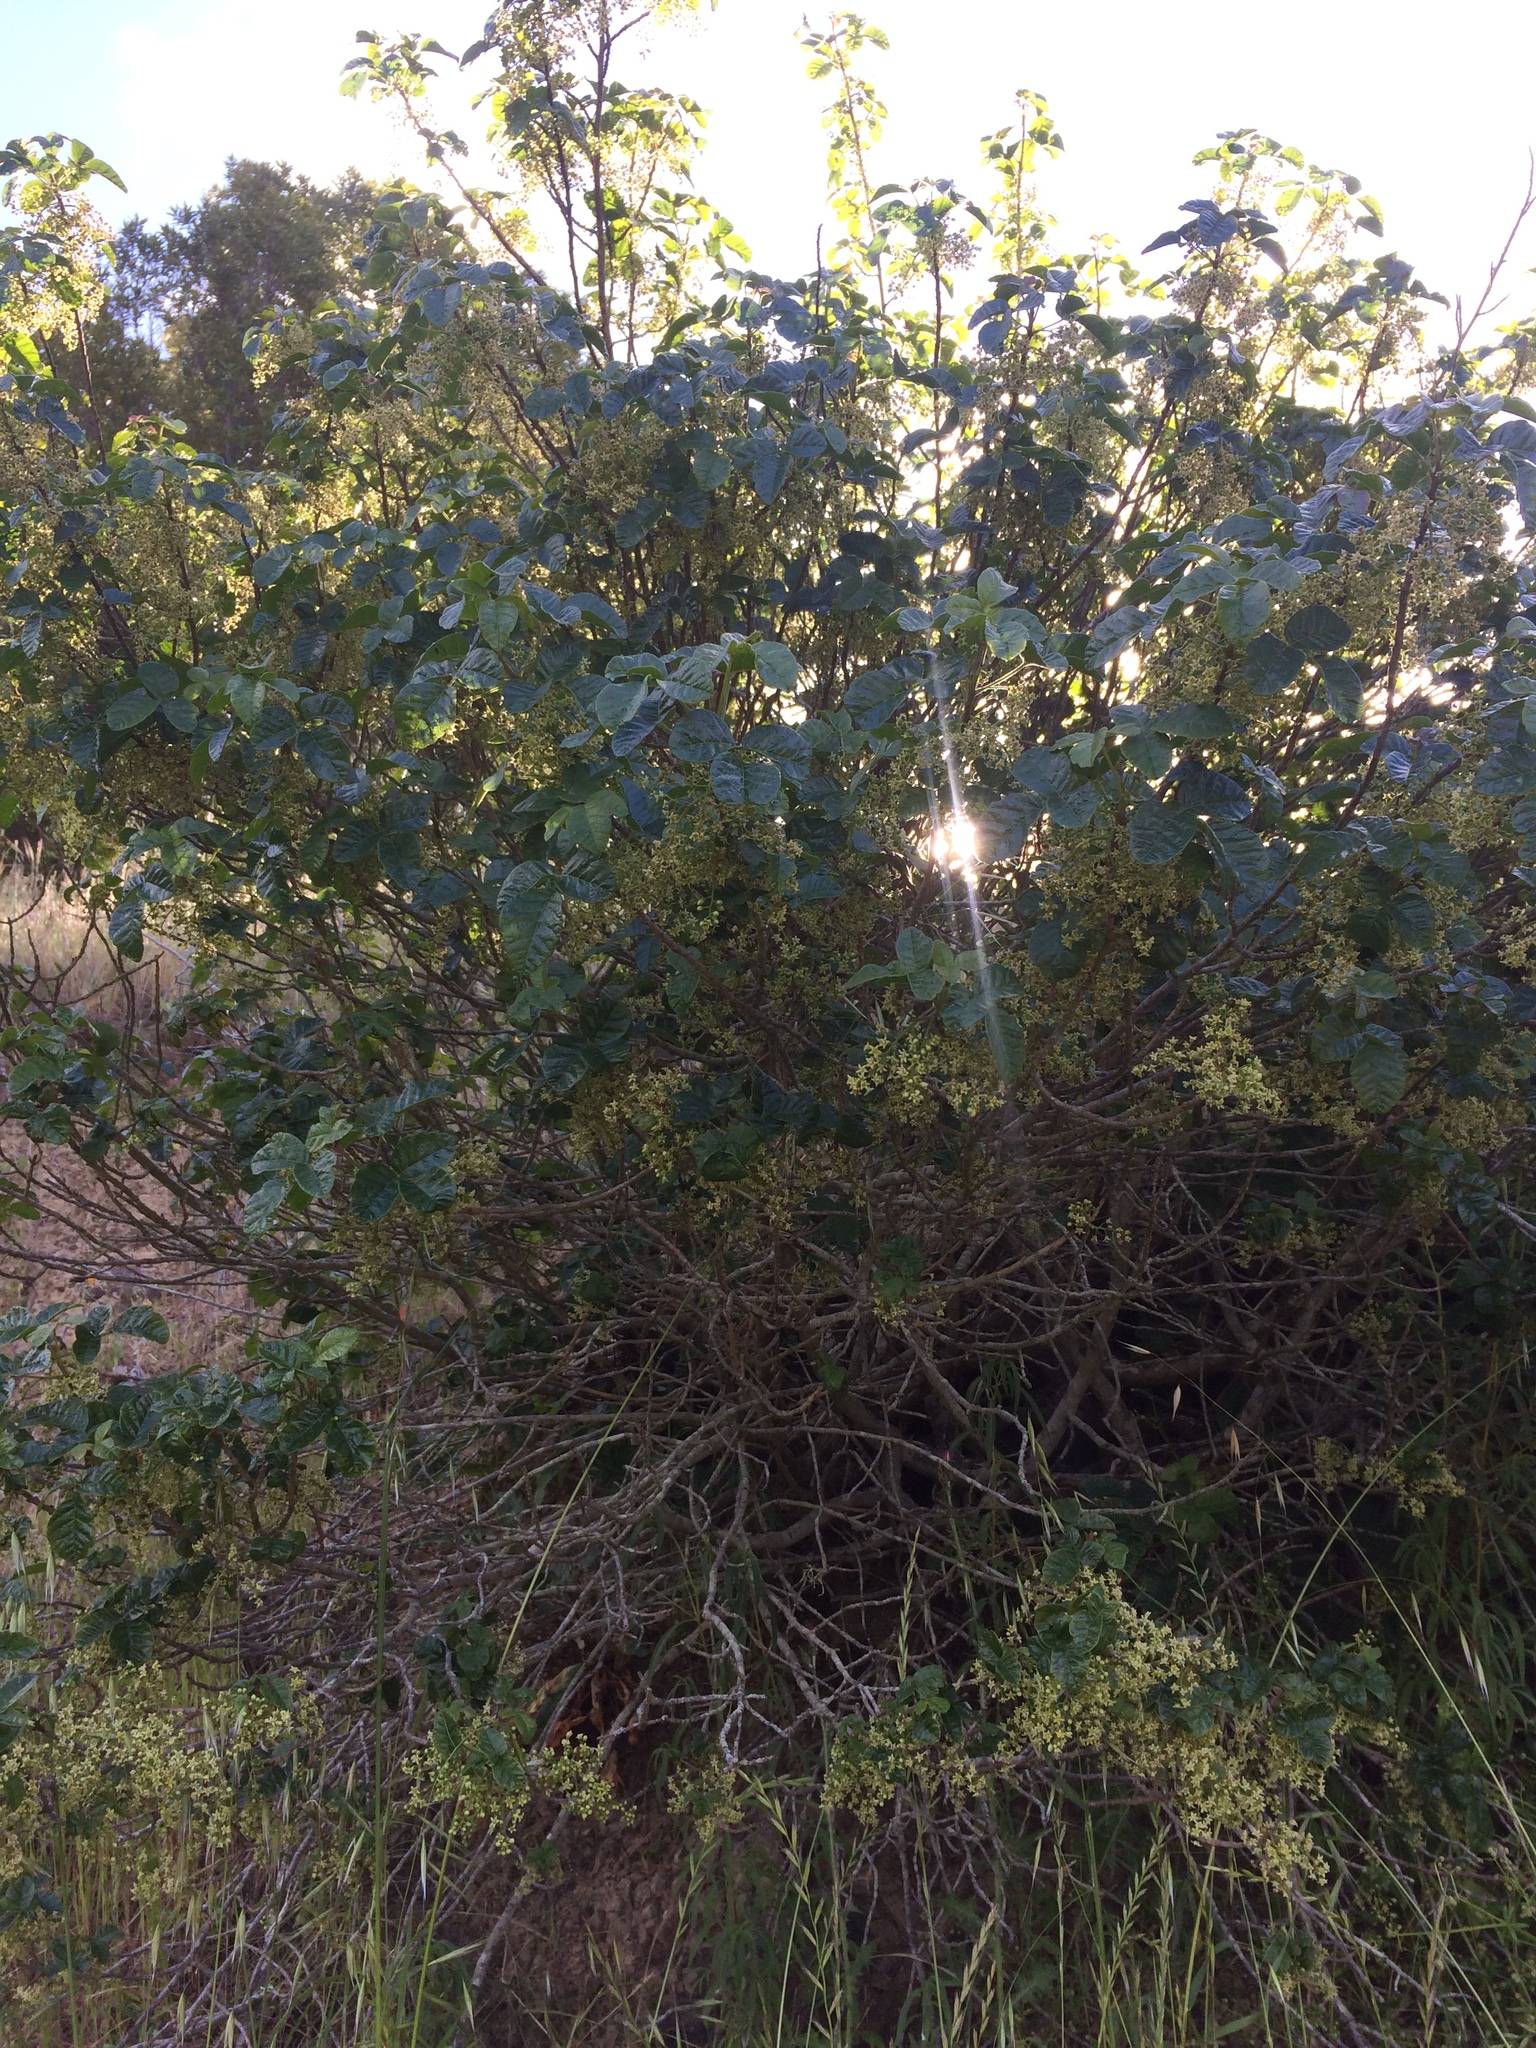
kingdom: Plantae
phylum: Tracheophyta
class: Magnoliopsida
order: Sapindales
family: Anacardiaceae
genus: Toxicodendron
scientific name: Toxicodendron diversilobum
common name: Pacific poison-oak
